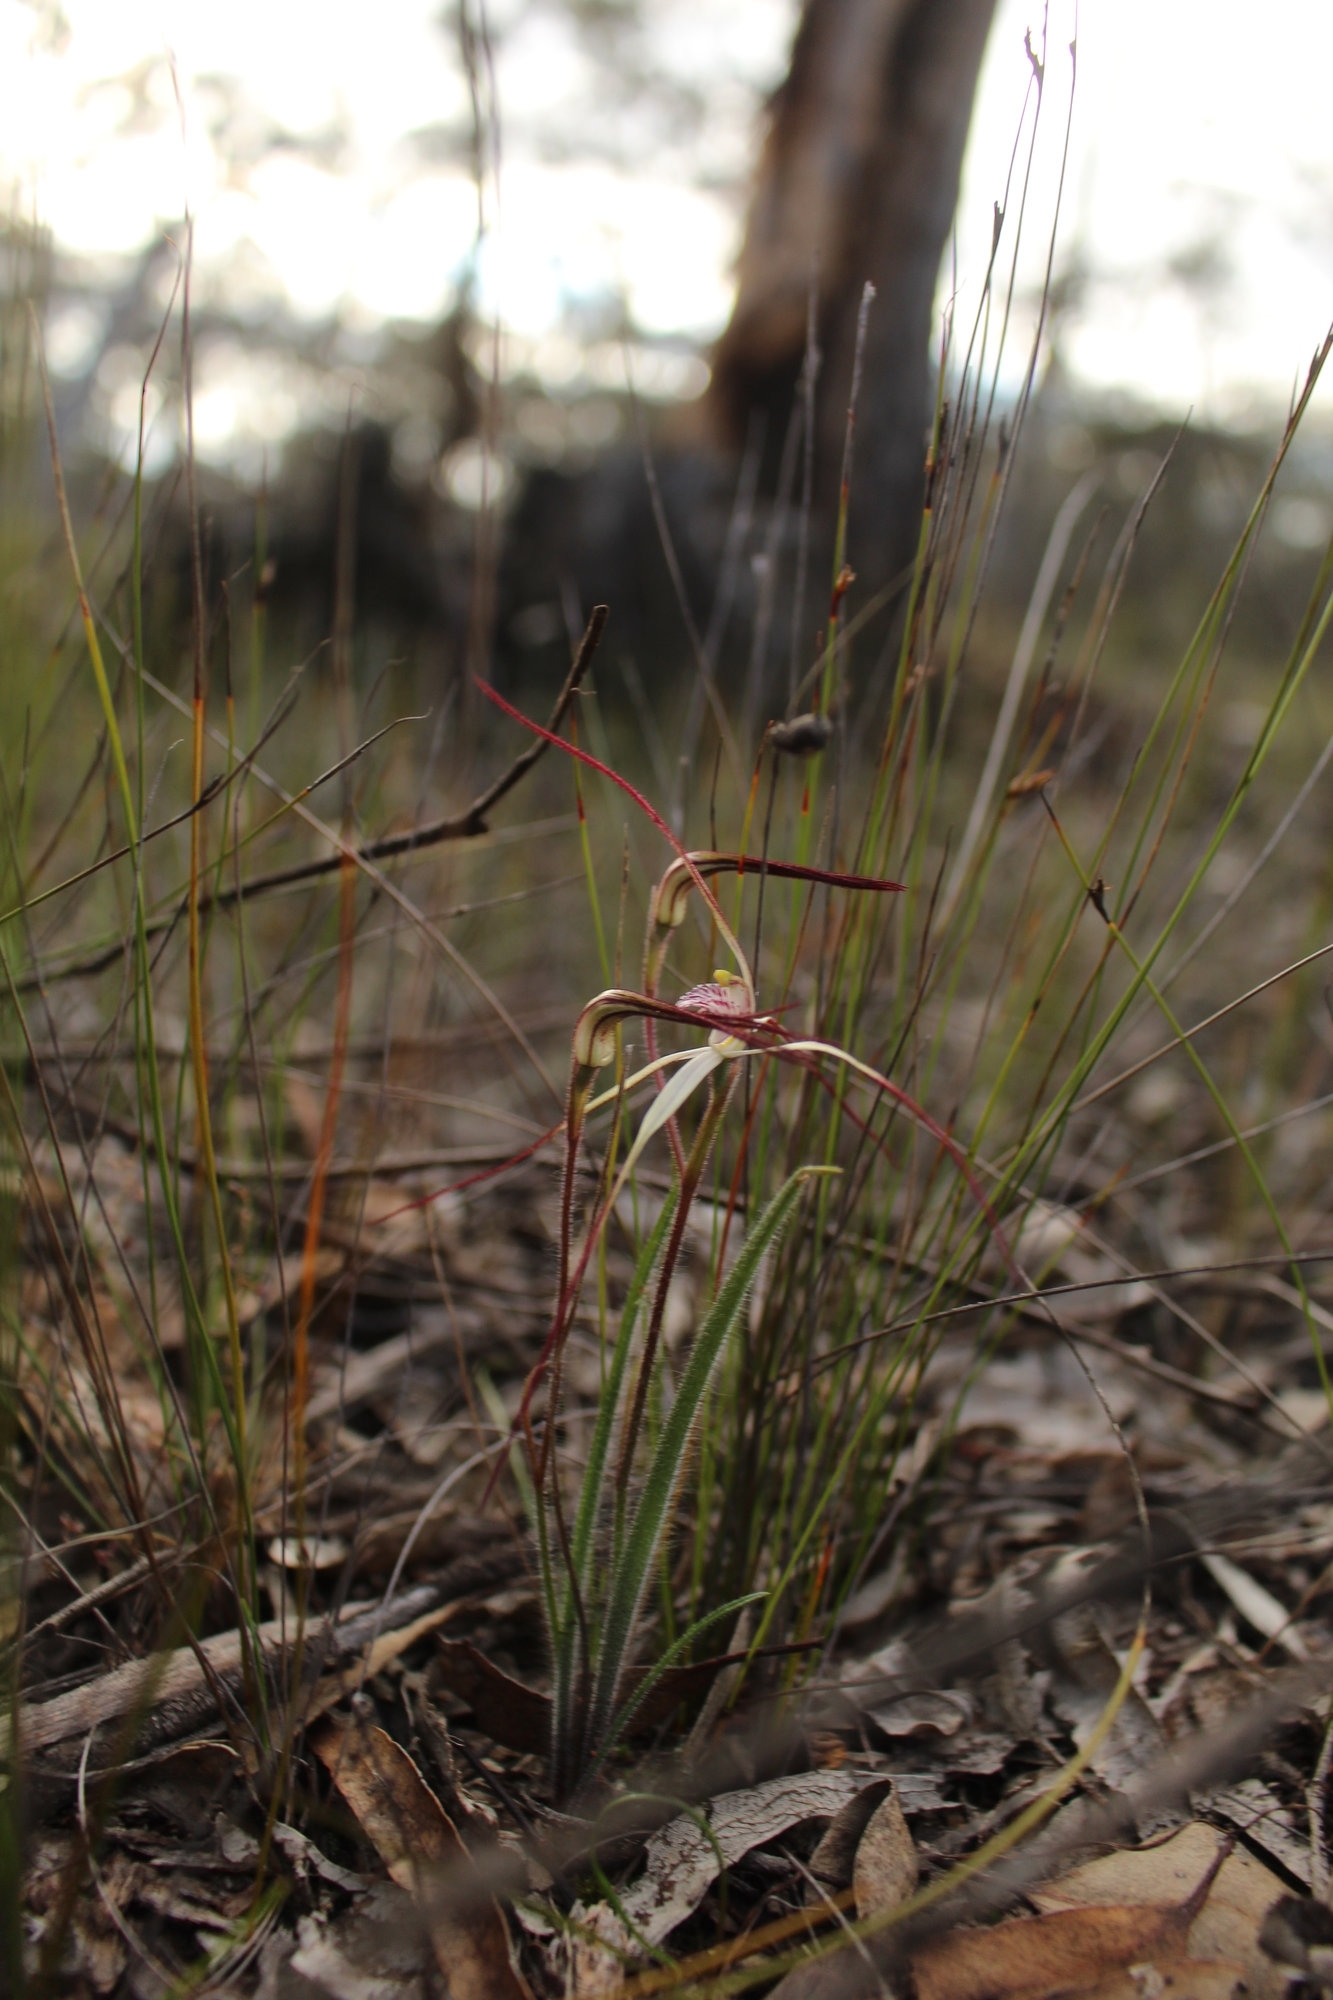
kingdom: Plantae
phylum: Tracheophyta
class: Liliopsida
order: Asparagales
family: Orchidaceae
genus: Caladenia
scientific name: Caladenia hiemalis
